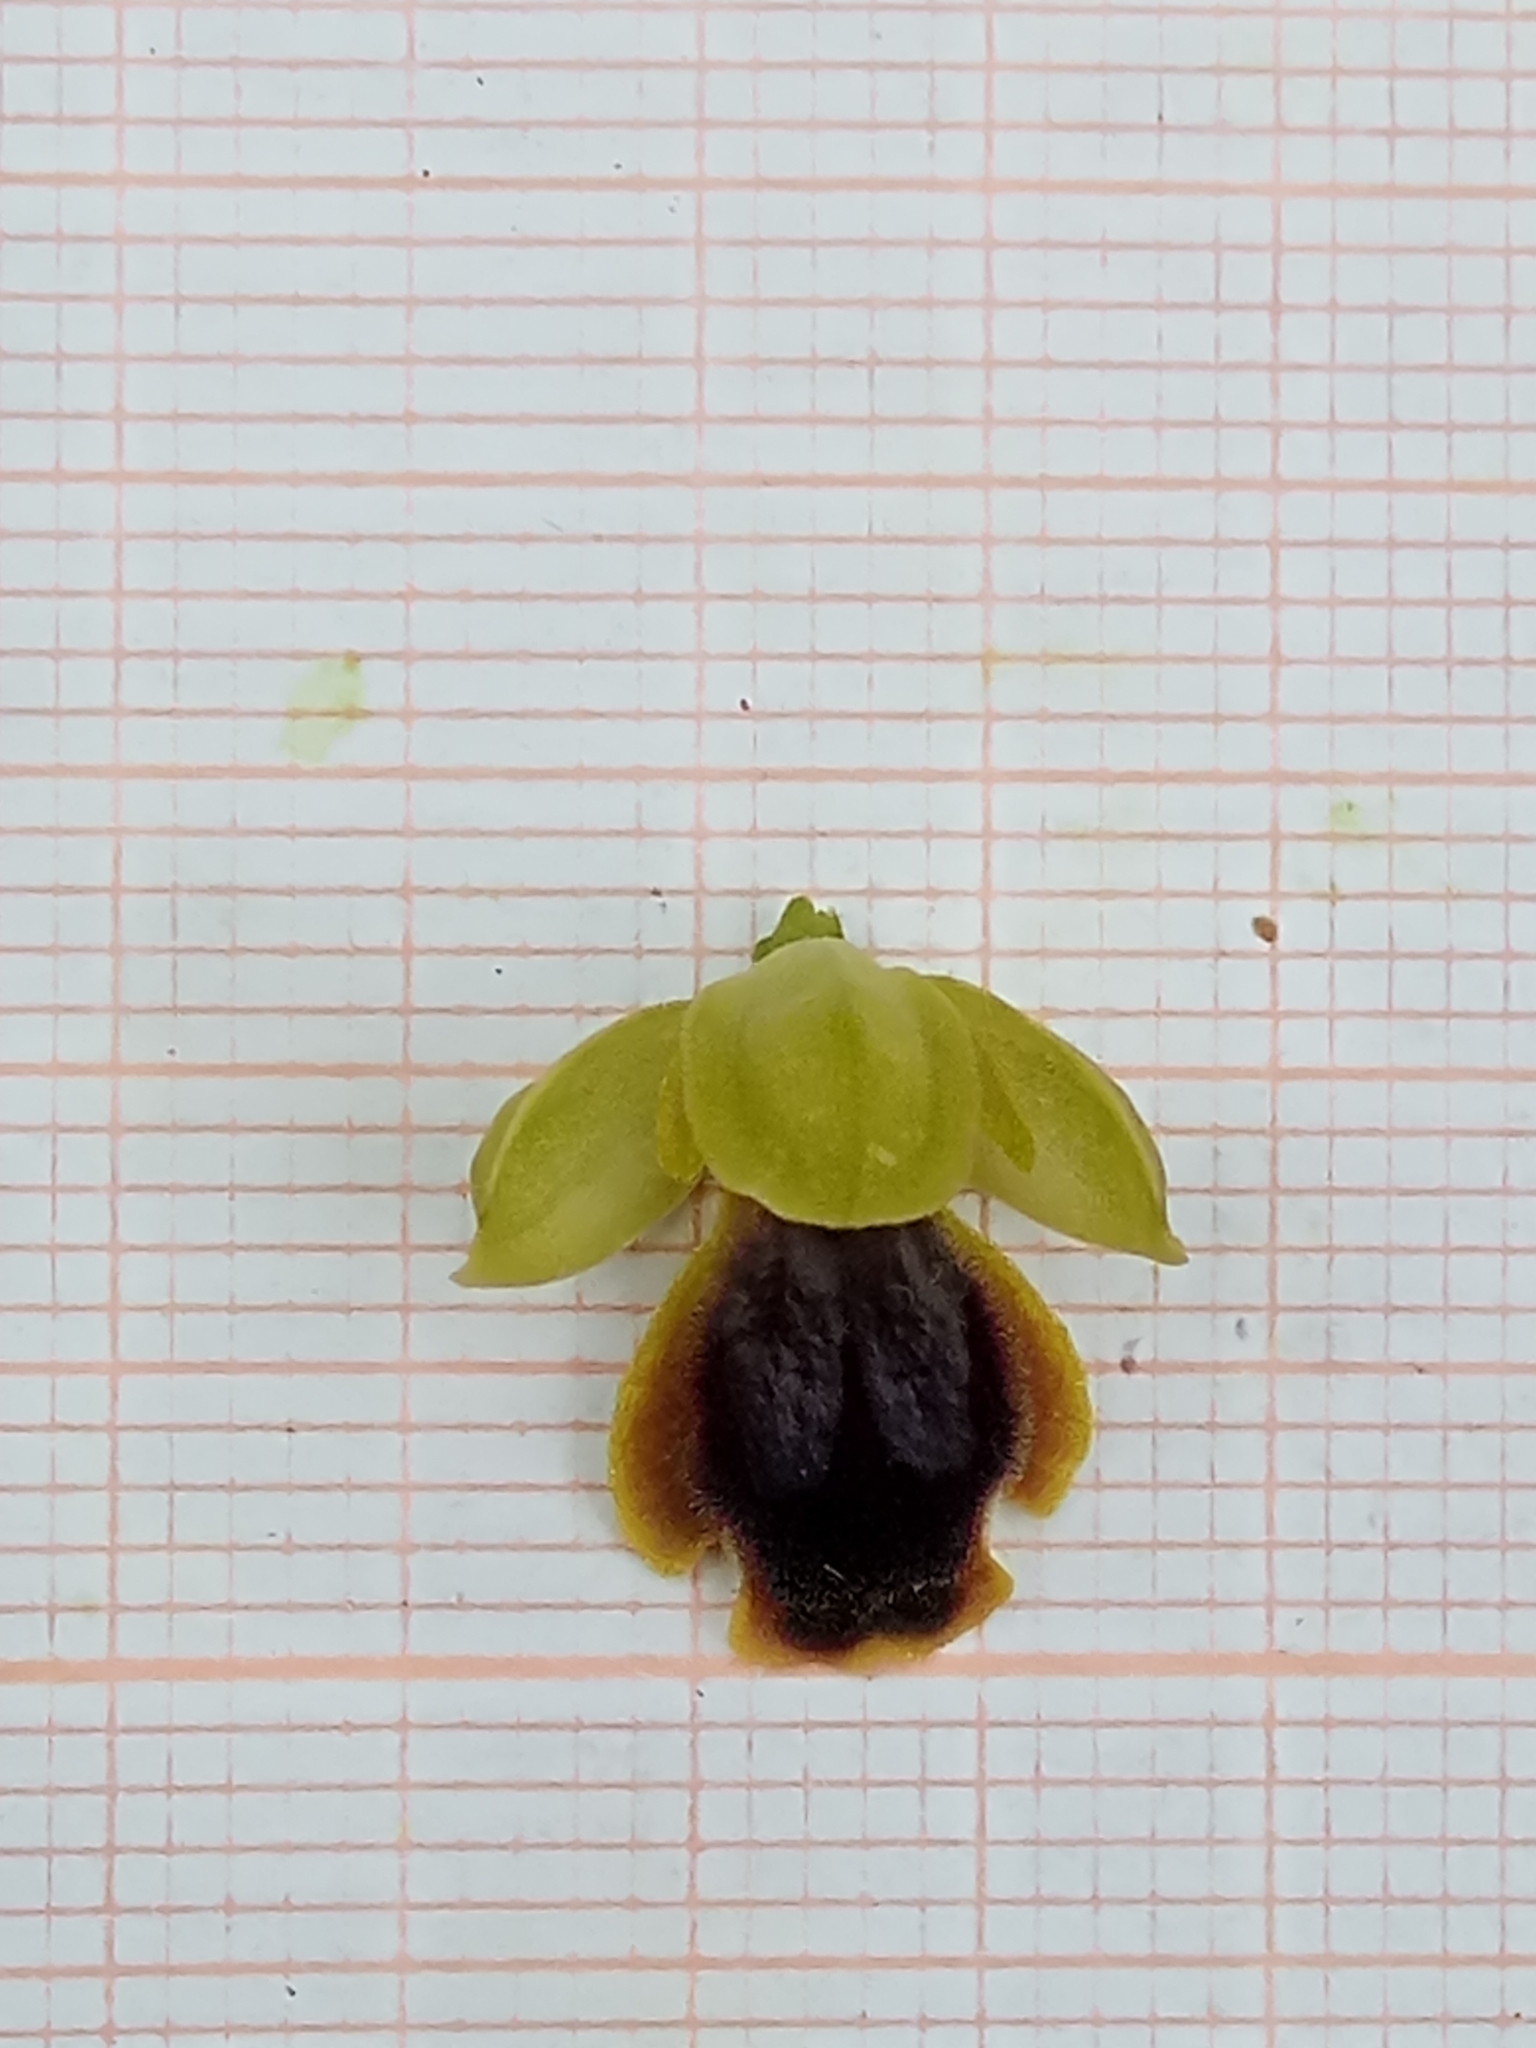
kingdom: Plantae
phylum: Tracheophyta
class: Liliopsida
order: Asparagales
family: Orchidaceae
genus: Ophrys
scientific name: Ophrys battandieri
